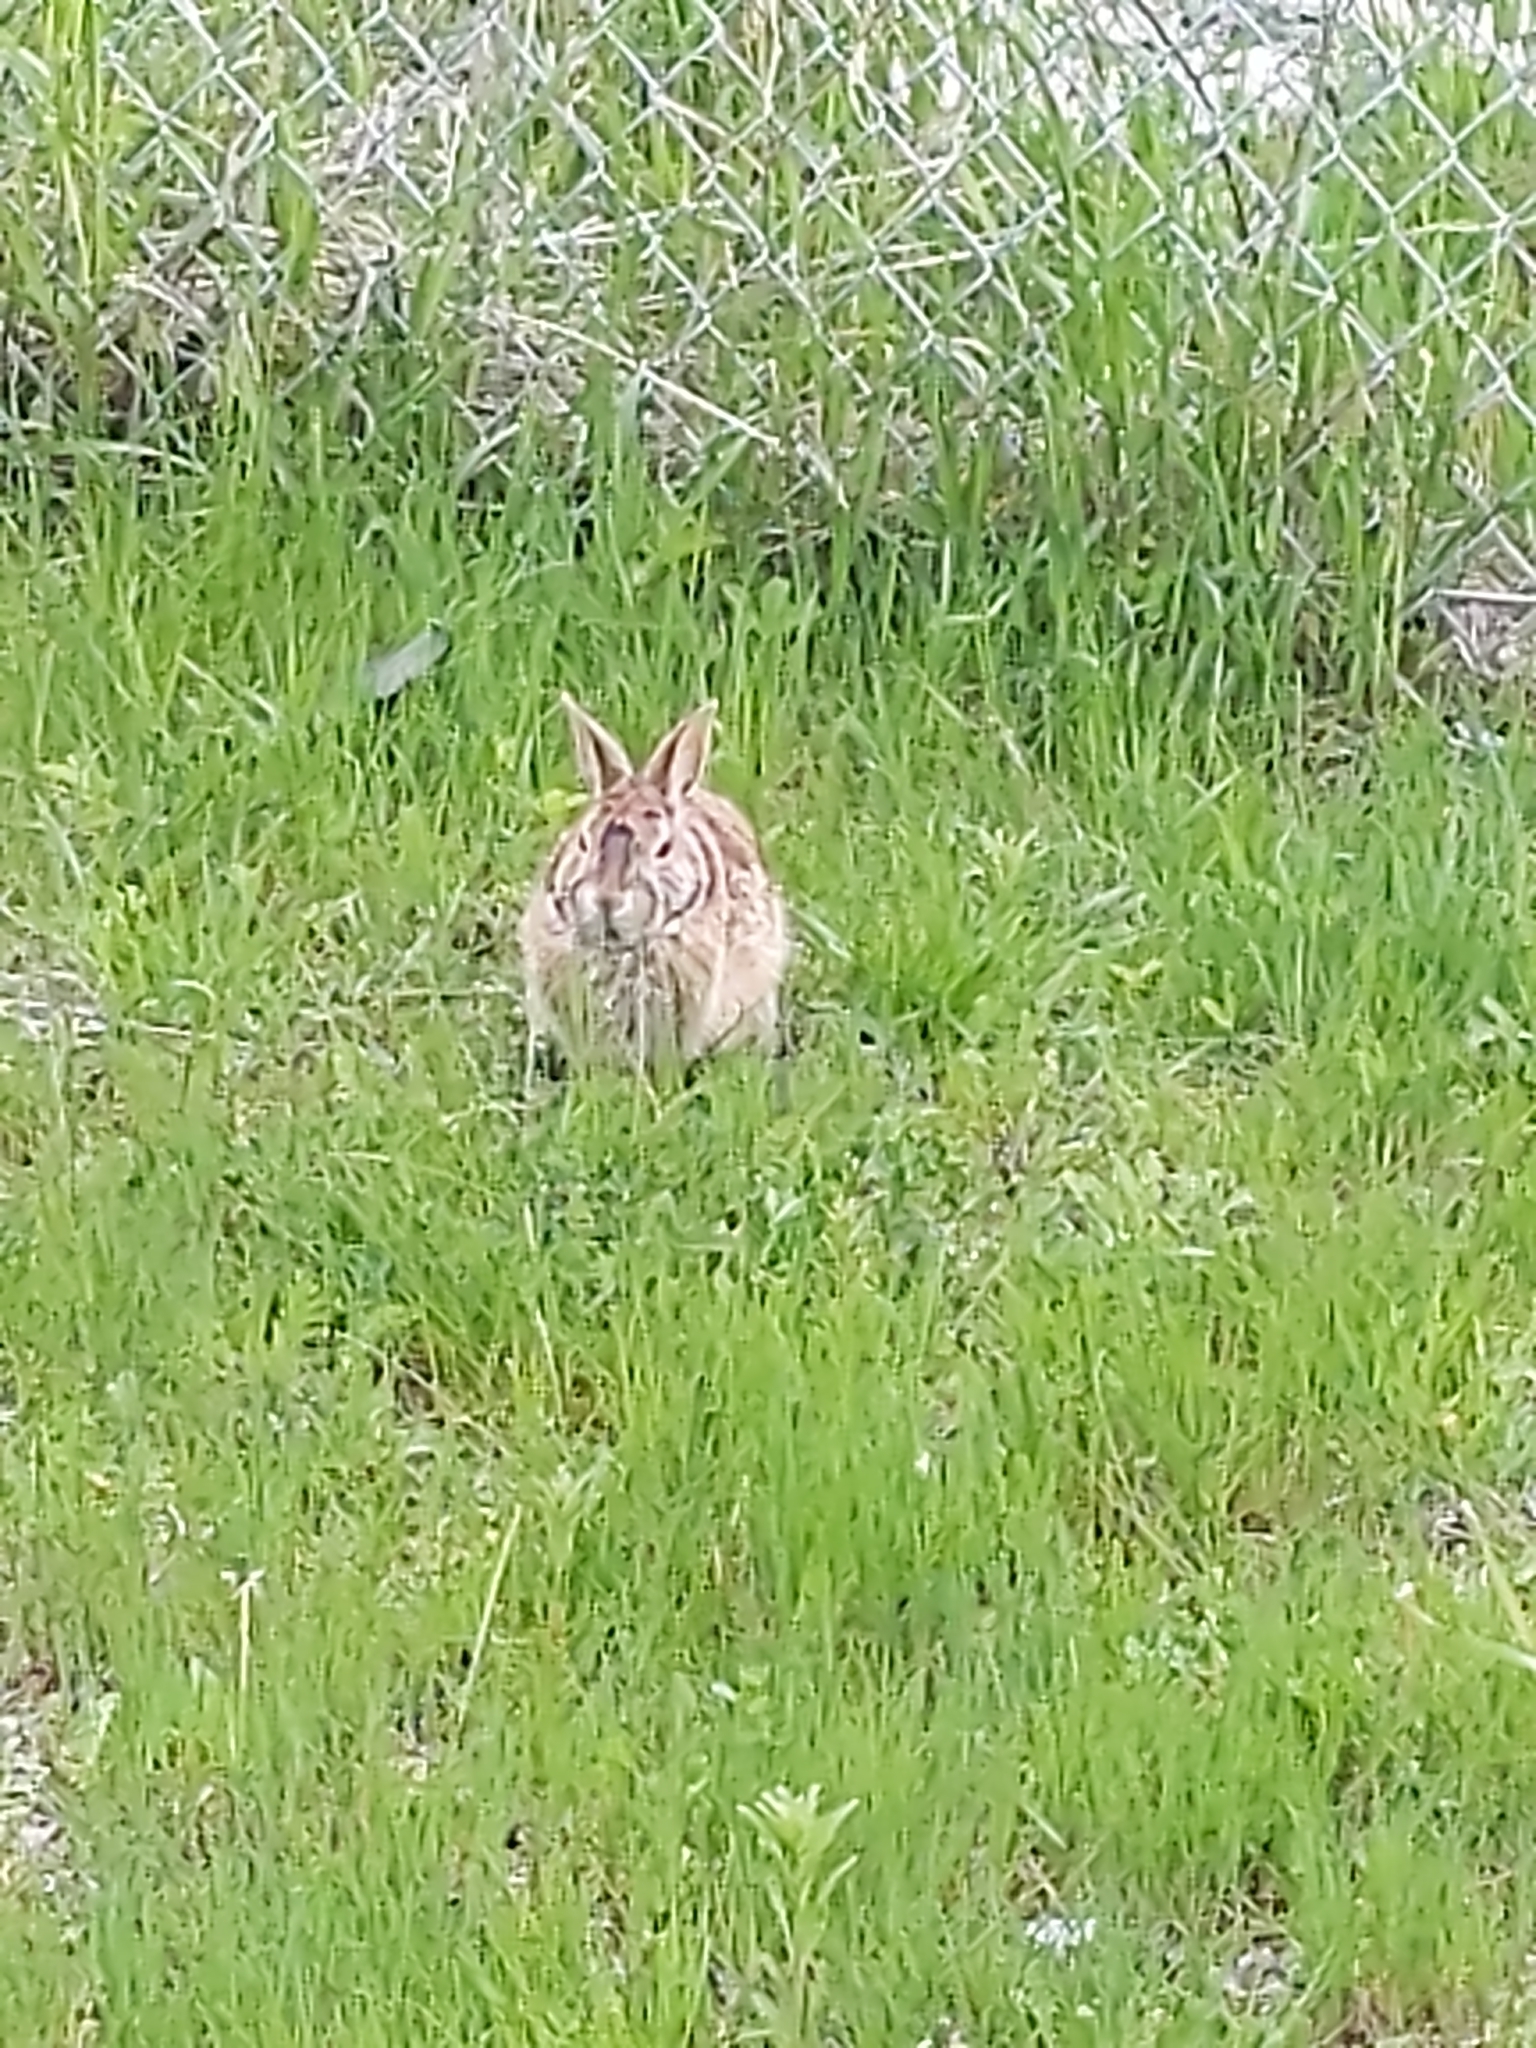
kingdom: Animalia
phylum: Chordata
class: Mammalia
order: Lagomorpha
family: Leporidae
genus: Sylvilagus
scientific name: Sylvilagus floridanus
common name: Eastern cottontail
